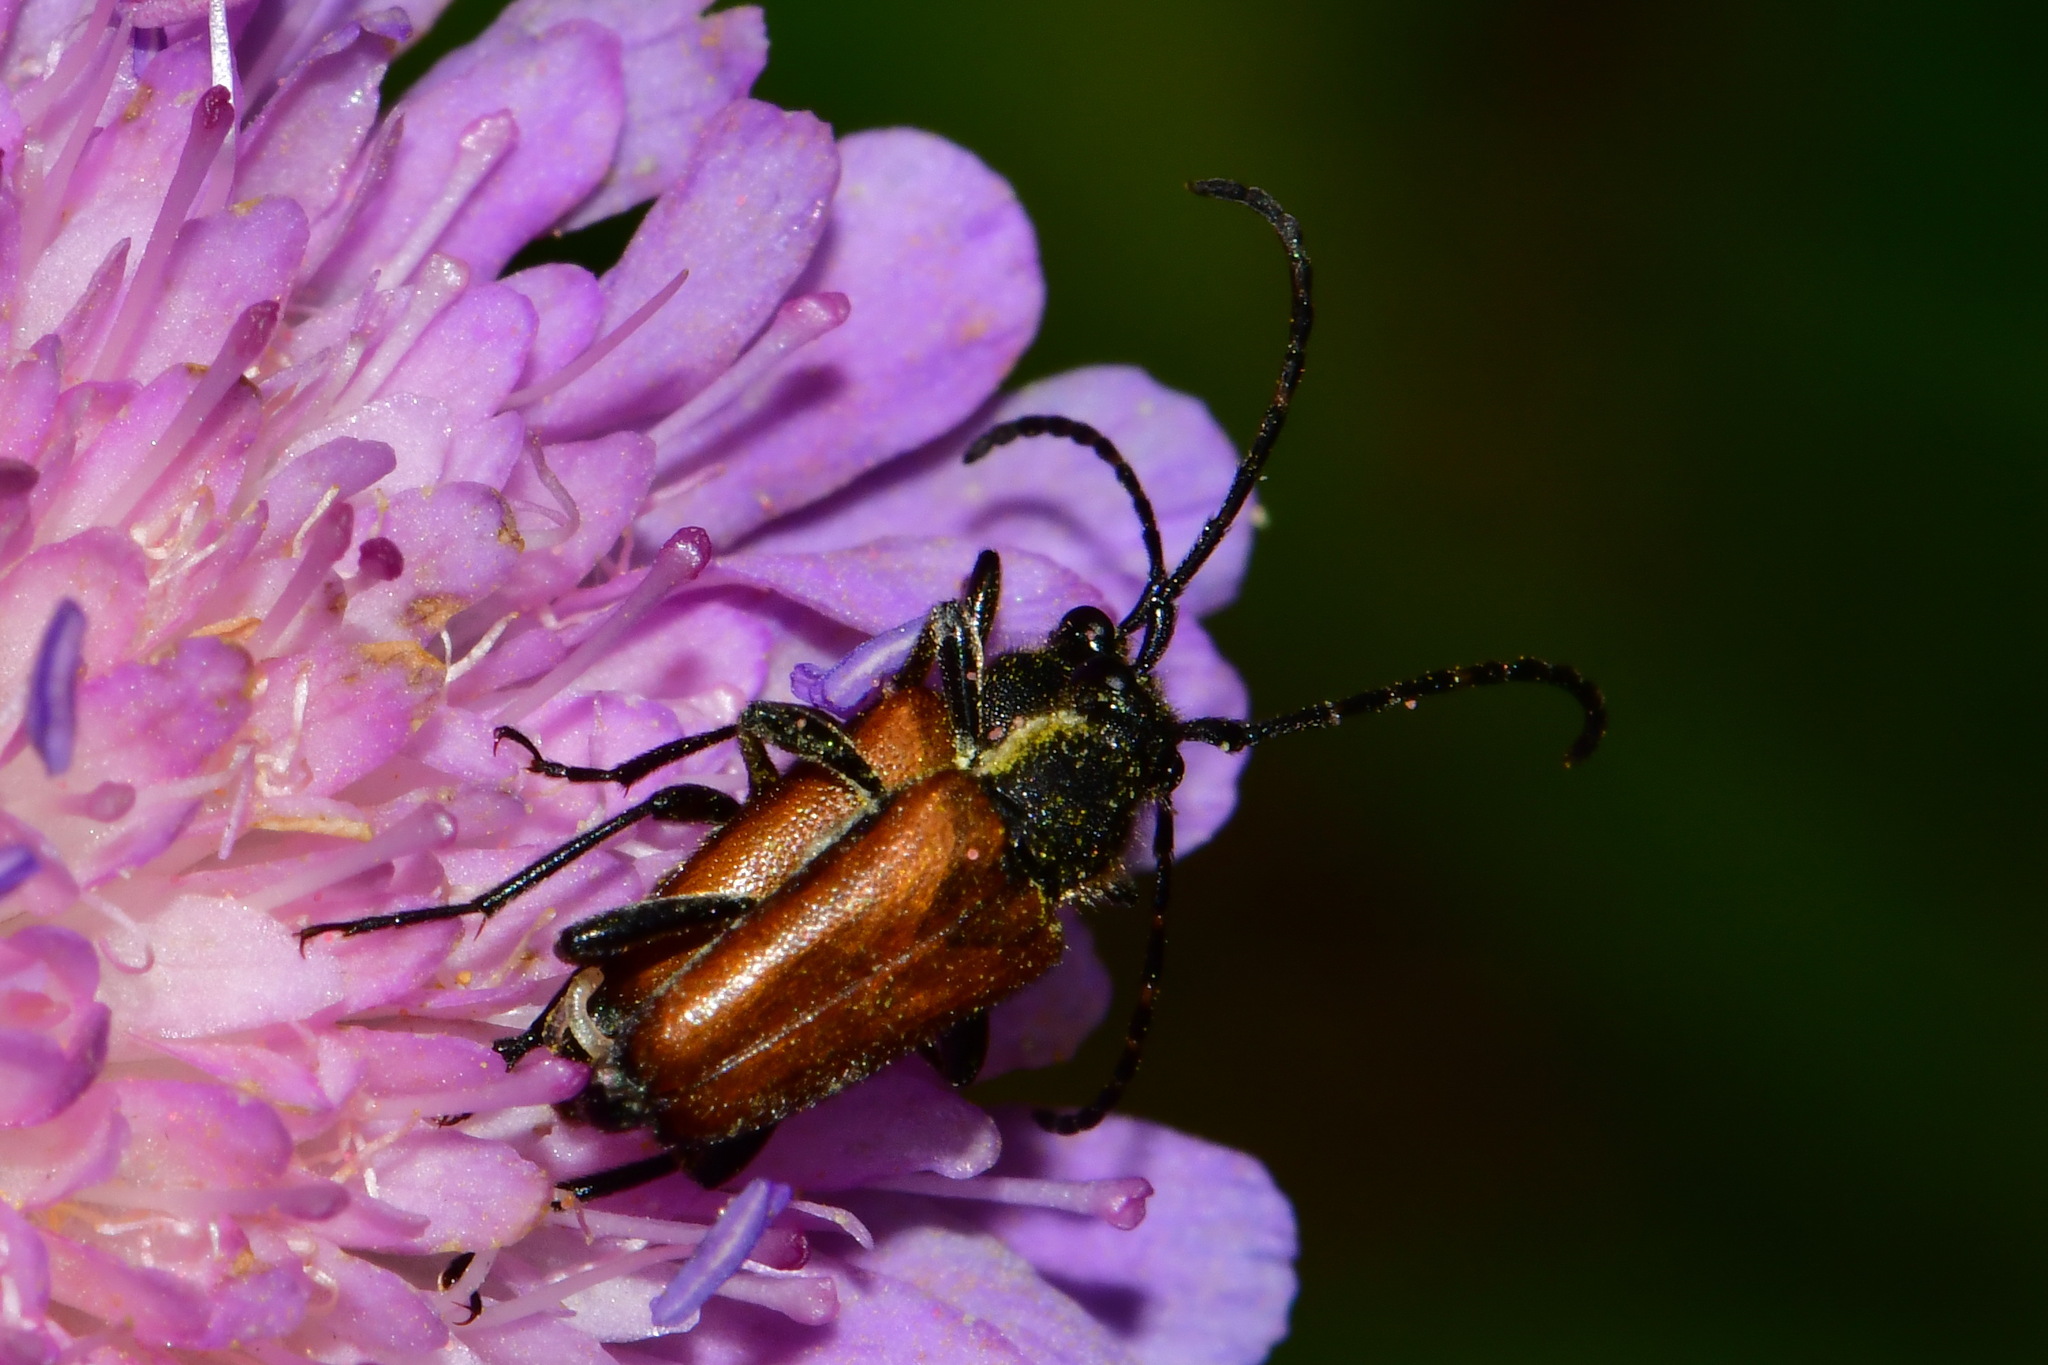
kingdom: Animalia
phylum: Arthropoda
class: Insecta
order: Coleoptera
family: Cerambycidae
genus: Paracorymbia
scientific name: Paracorymbia maculicornis
